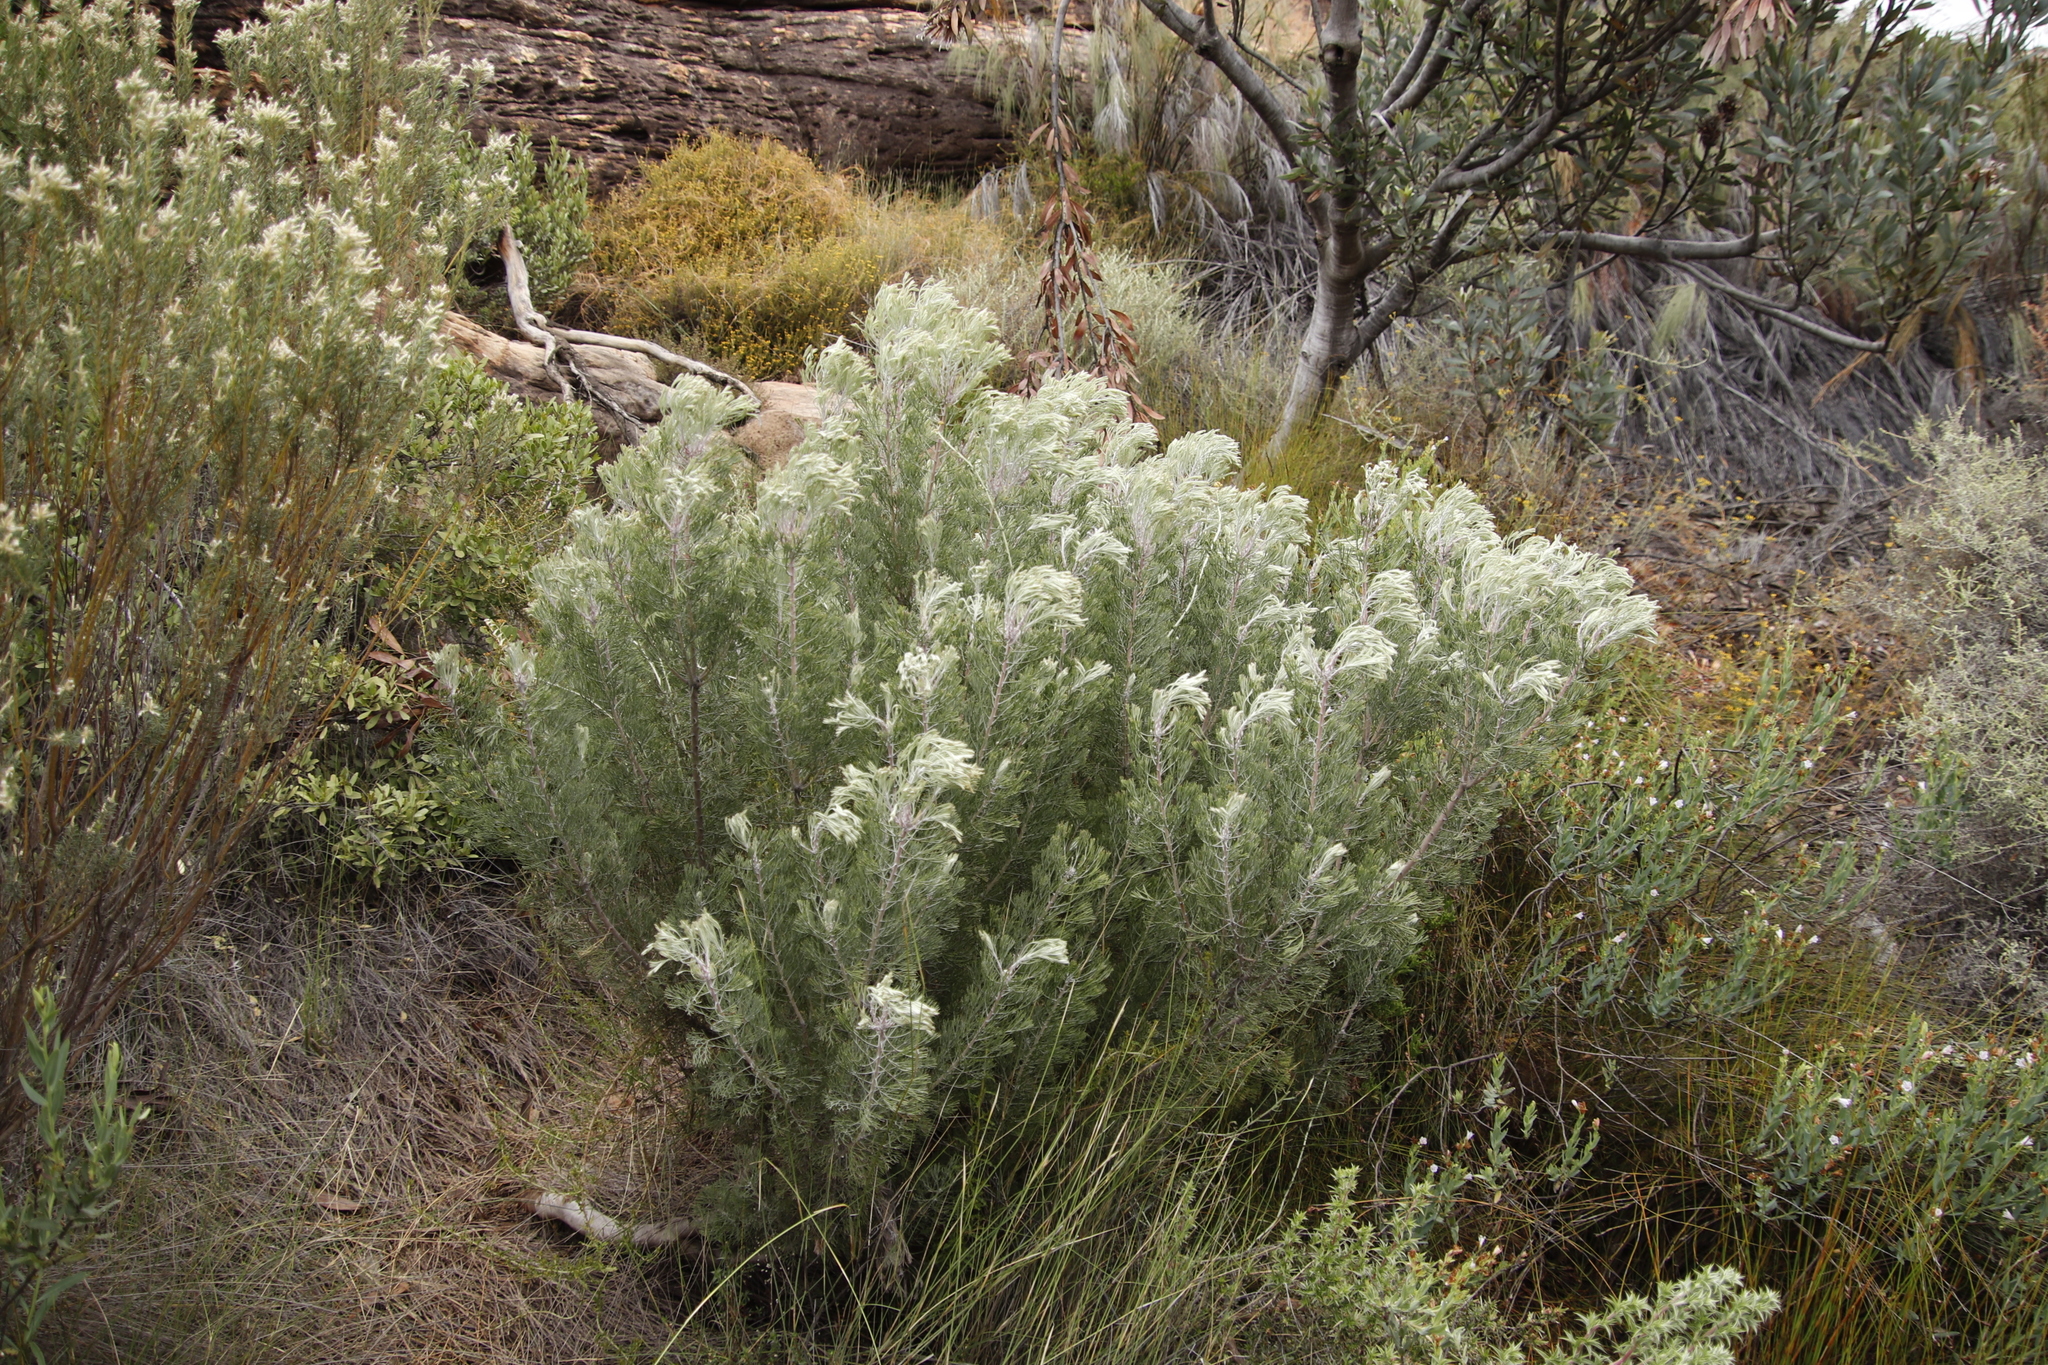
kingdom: Plantae
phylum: Tracheophyta
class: Magnoliopsida
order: Proteales
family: Proteaceae
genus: Paranomus
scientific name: Paranomus bracteolaris
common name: Bokkeveld tree sceptre
